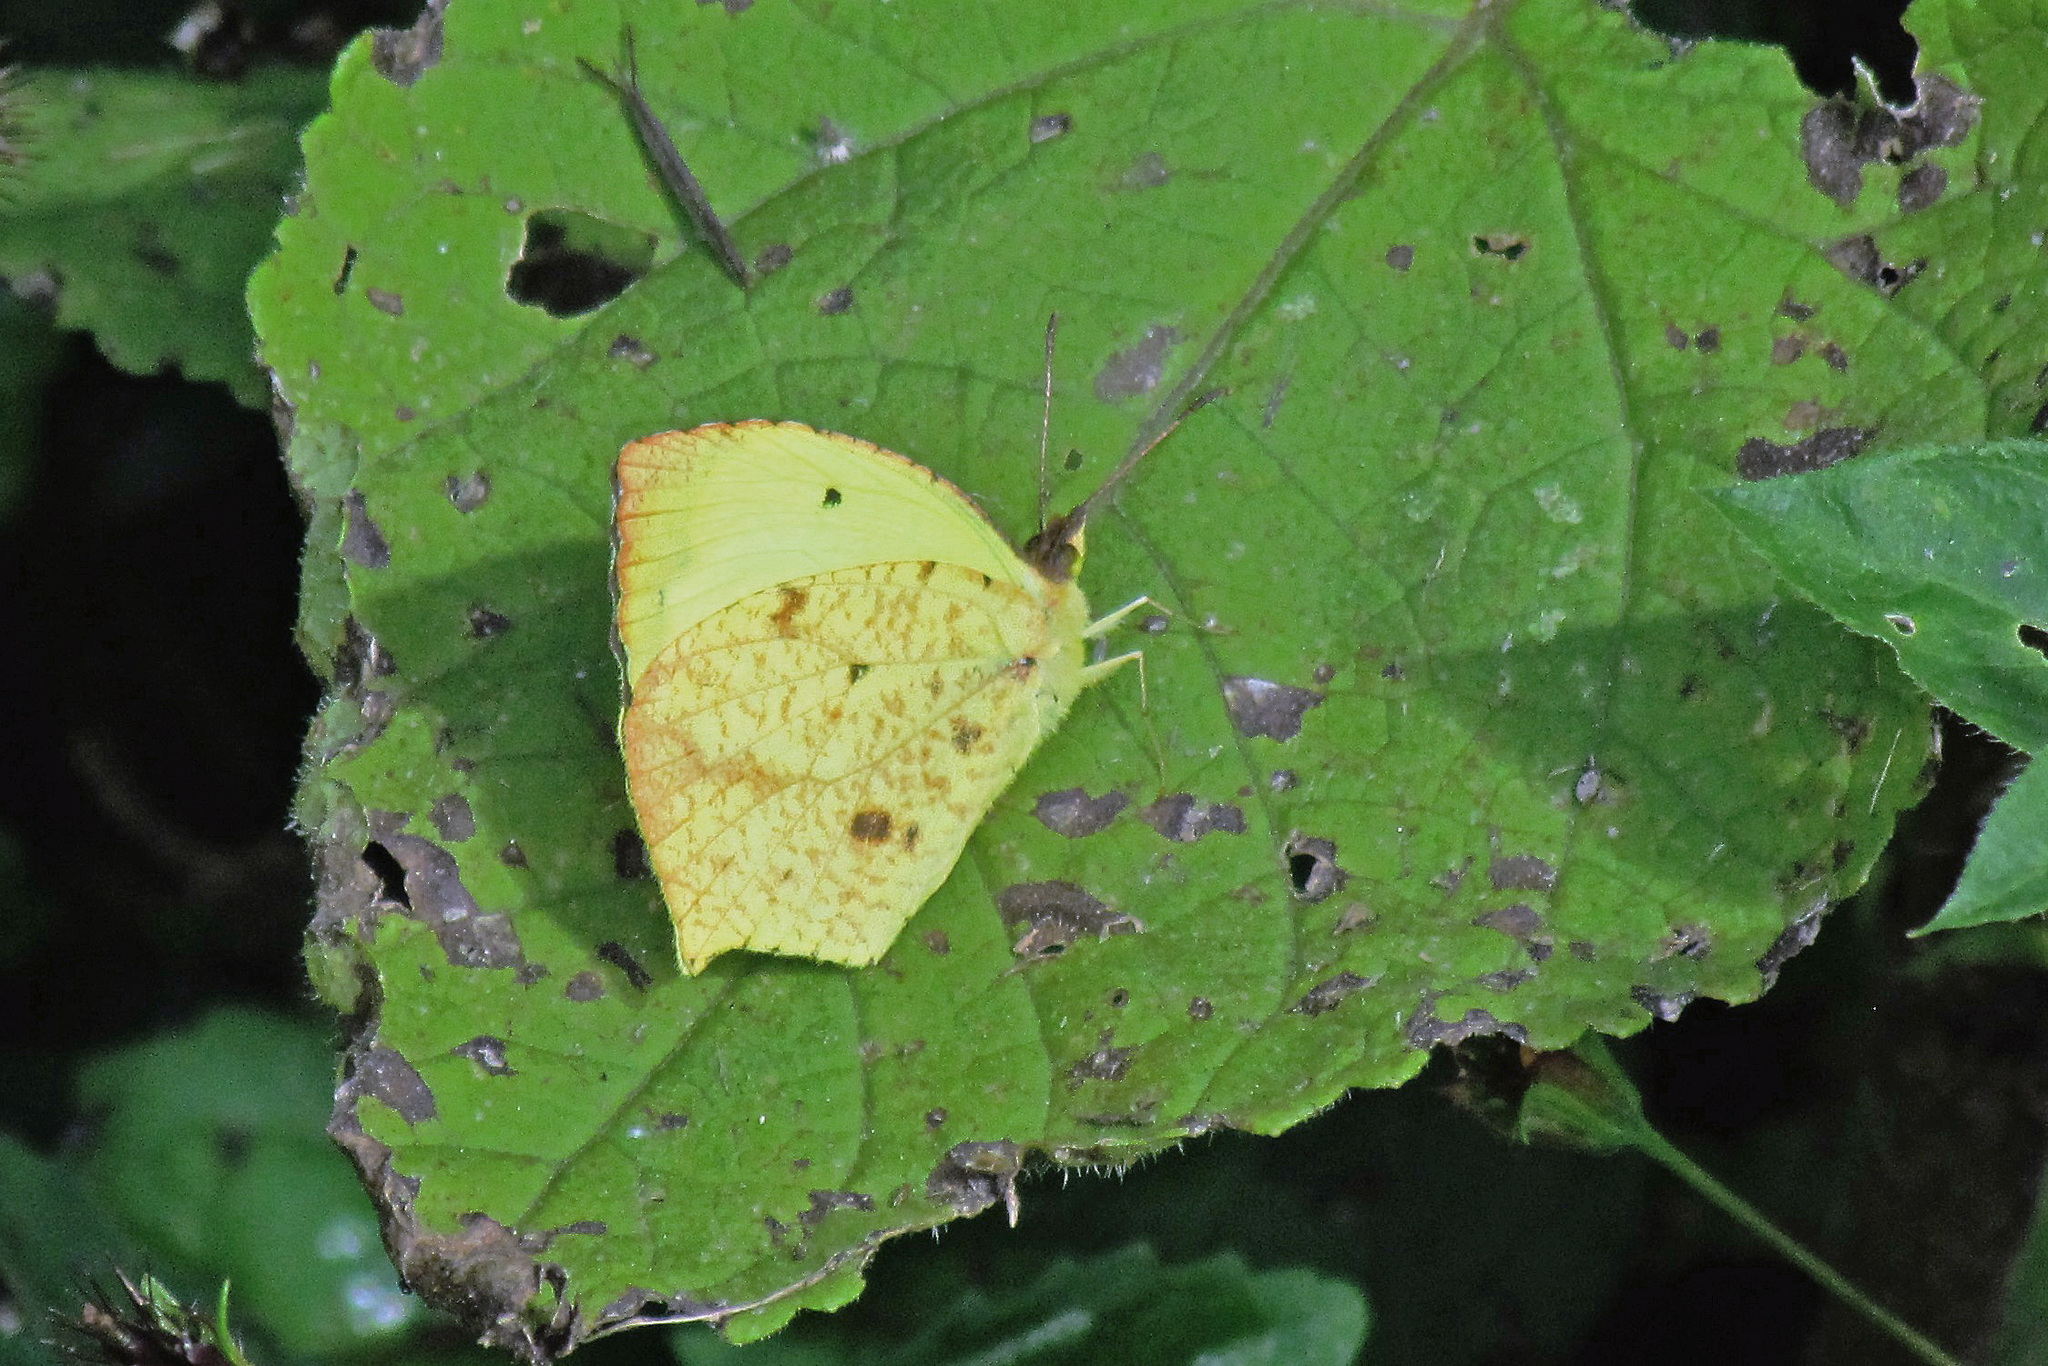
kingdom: Animalia
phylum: Arthropoda
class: Insecta
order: Lepidoptera
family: Pieridae
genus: Abaeis
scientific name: Abaeis salome
